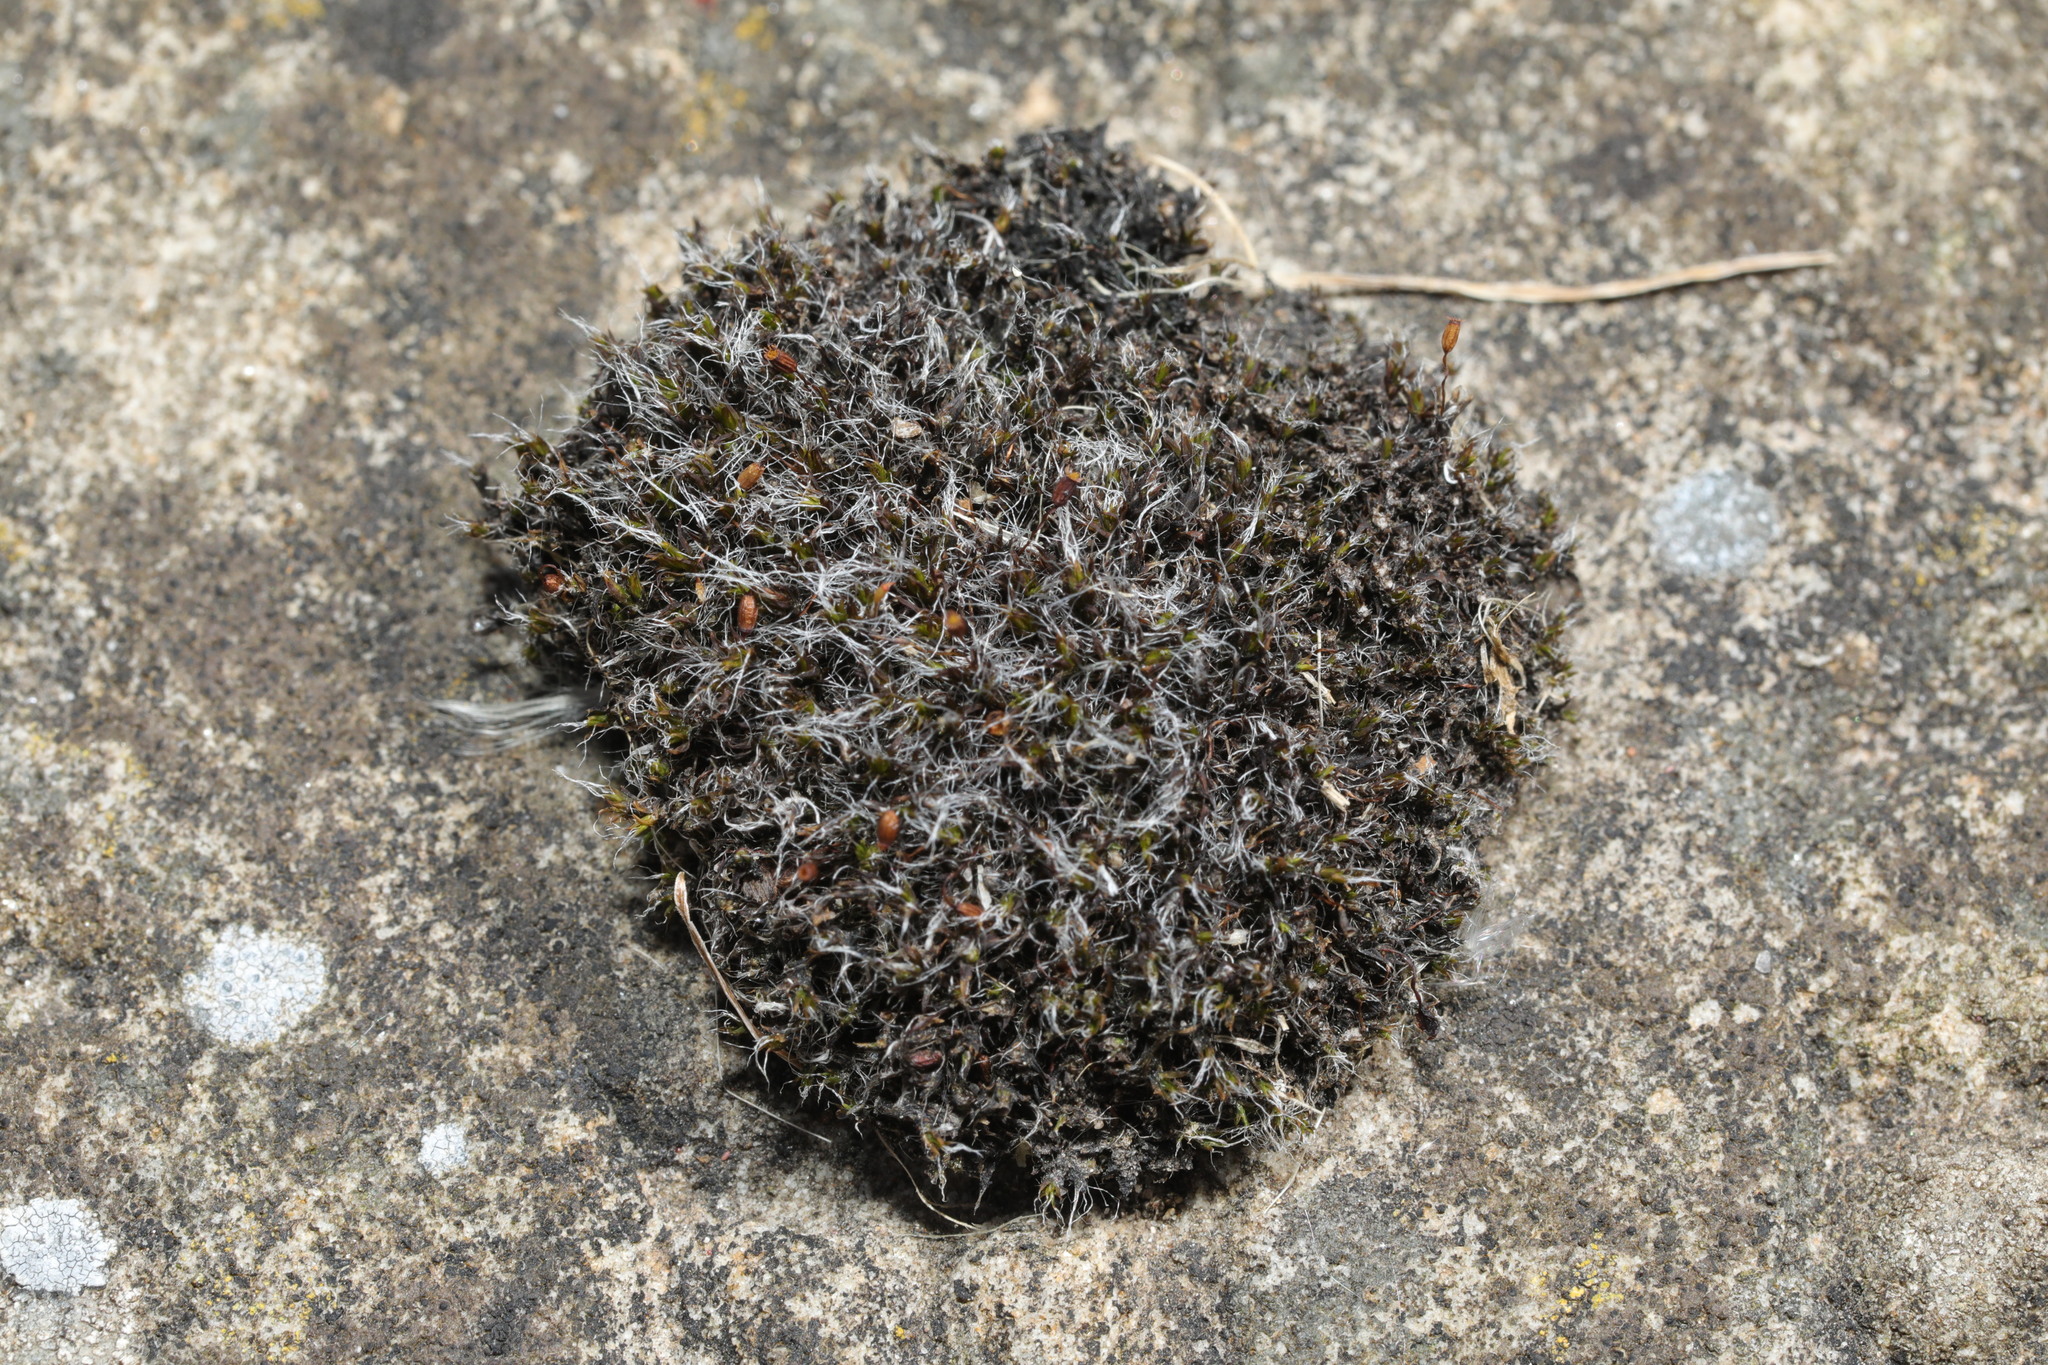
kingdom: Plantae
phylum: Bryophyta
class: Bryopsida
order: Grimmiales
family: Grimmiaceae
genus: Grimmia
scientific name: Grimmia pulvinata
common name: Grey-cushioned grimmia
